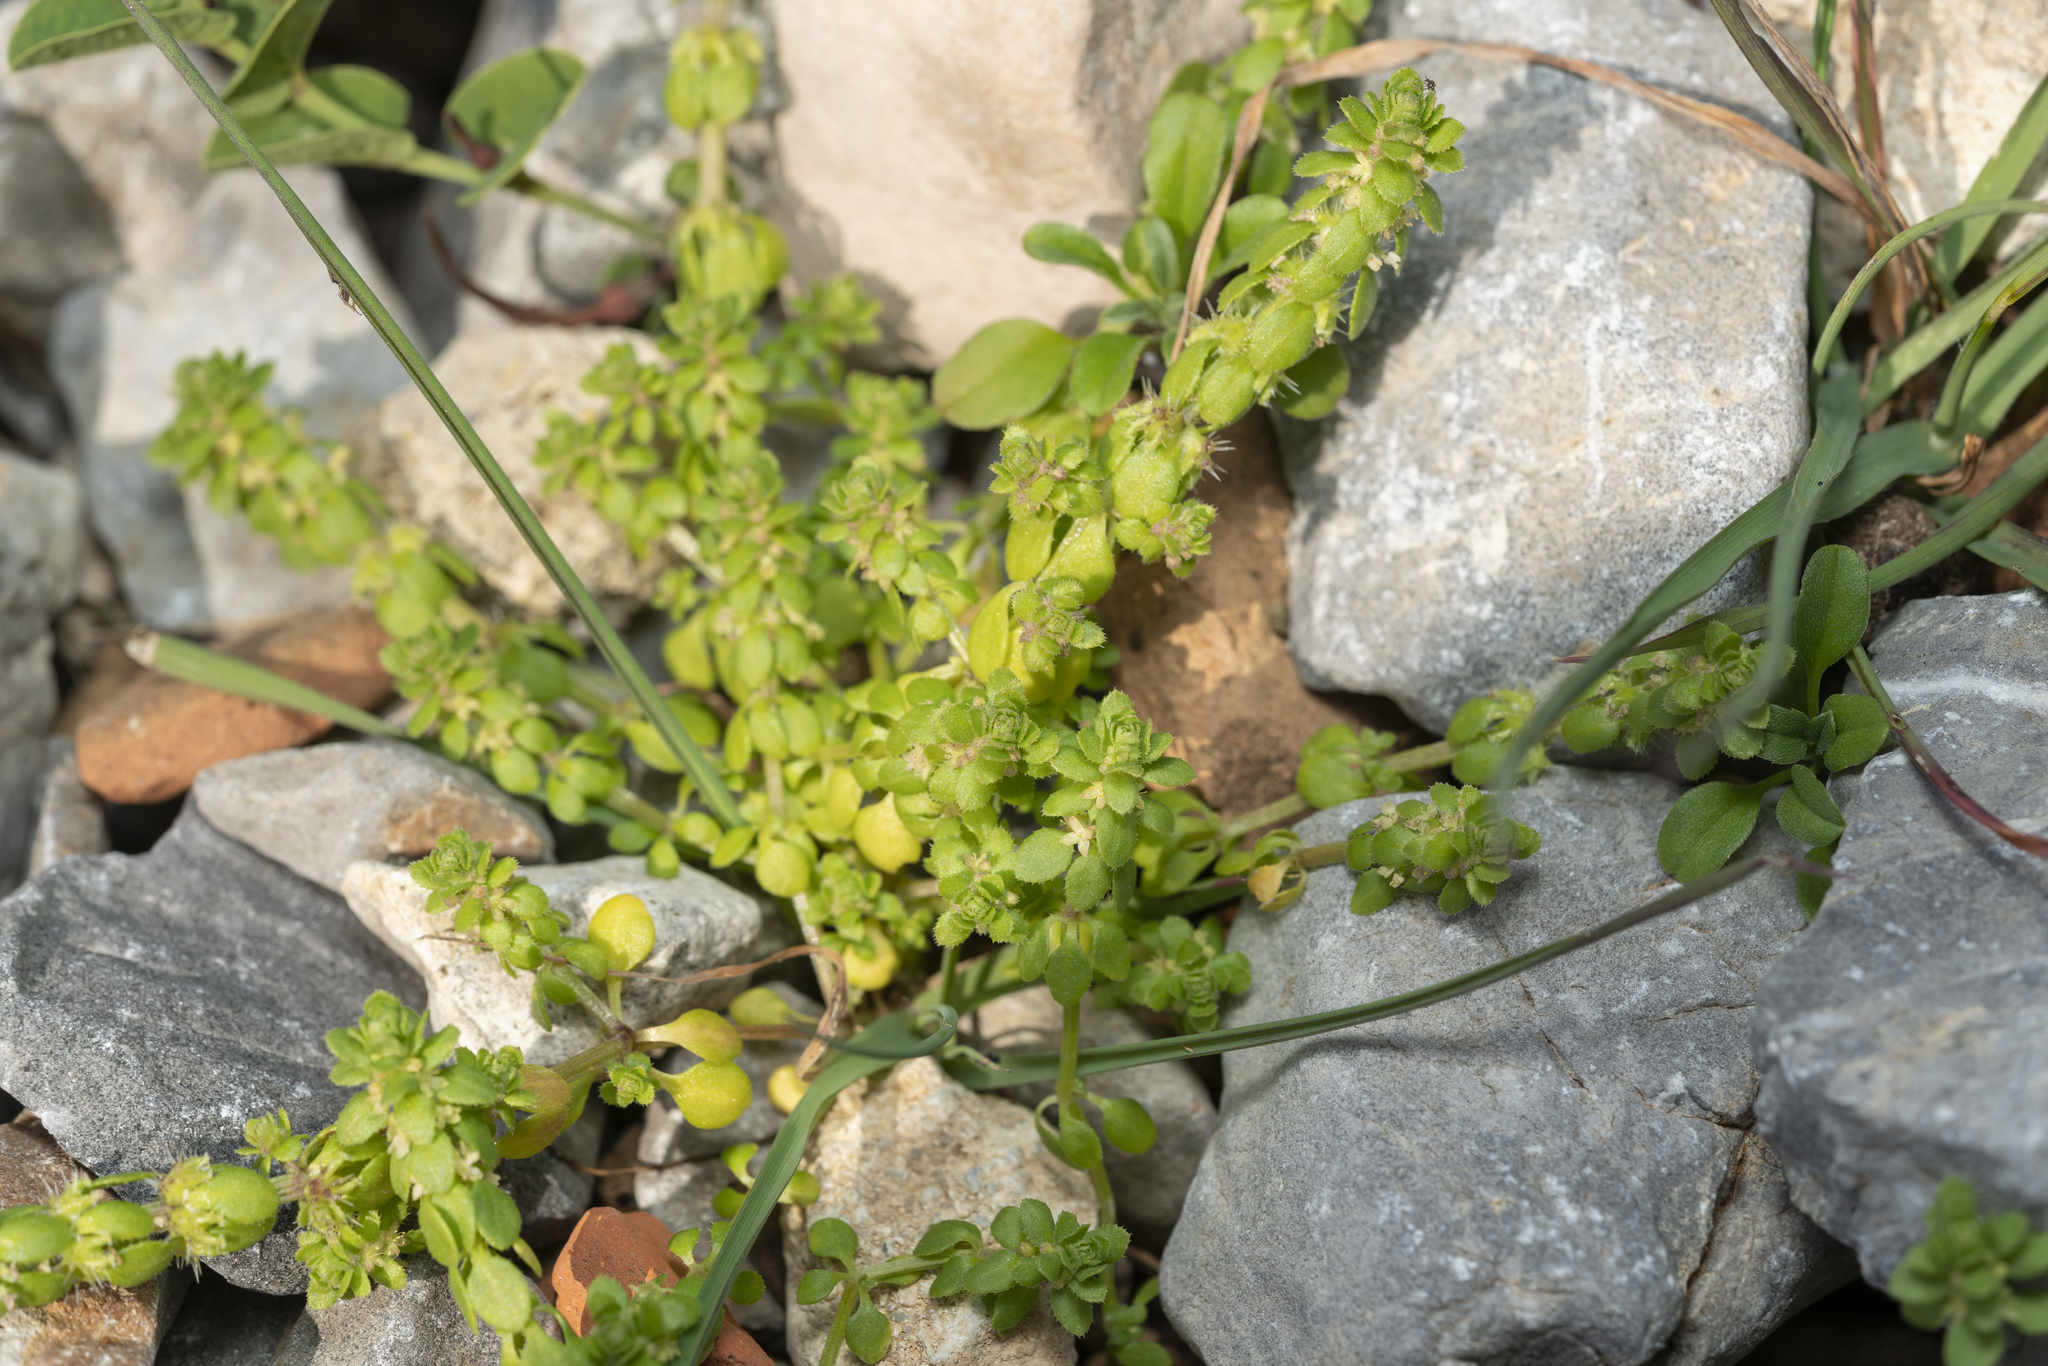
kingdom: Plantae
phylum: Tracheophyta
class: Magnoliopsida
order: Gentianales
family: Rubiaceae
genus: Valantia
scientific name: Valantia muralis
